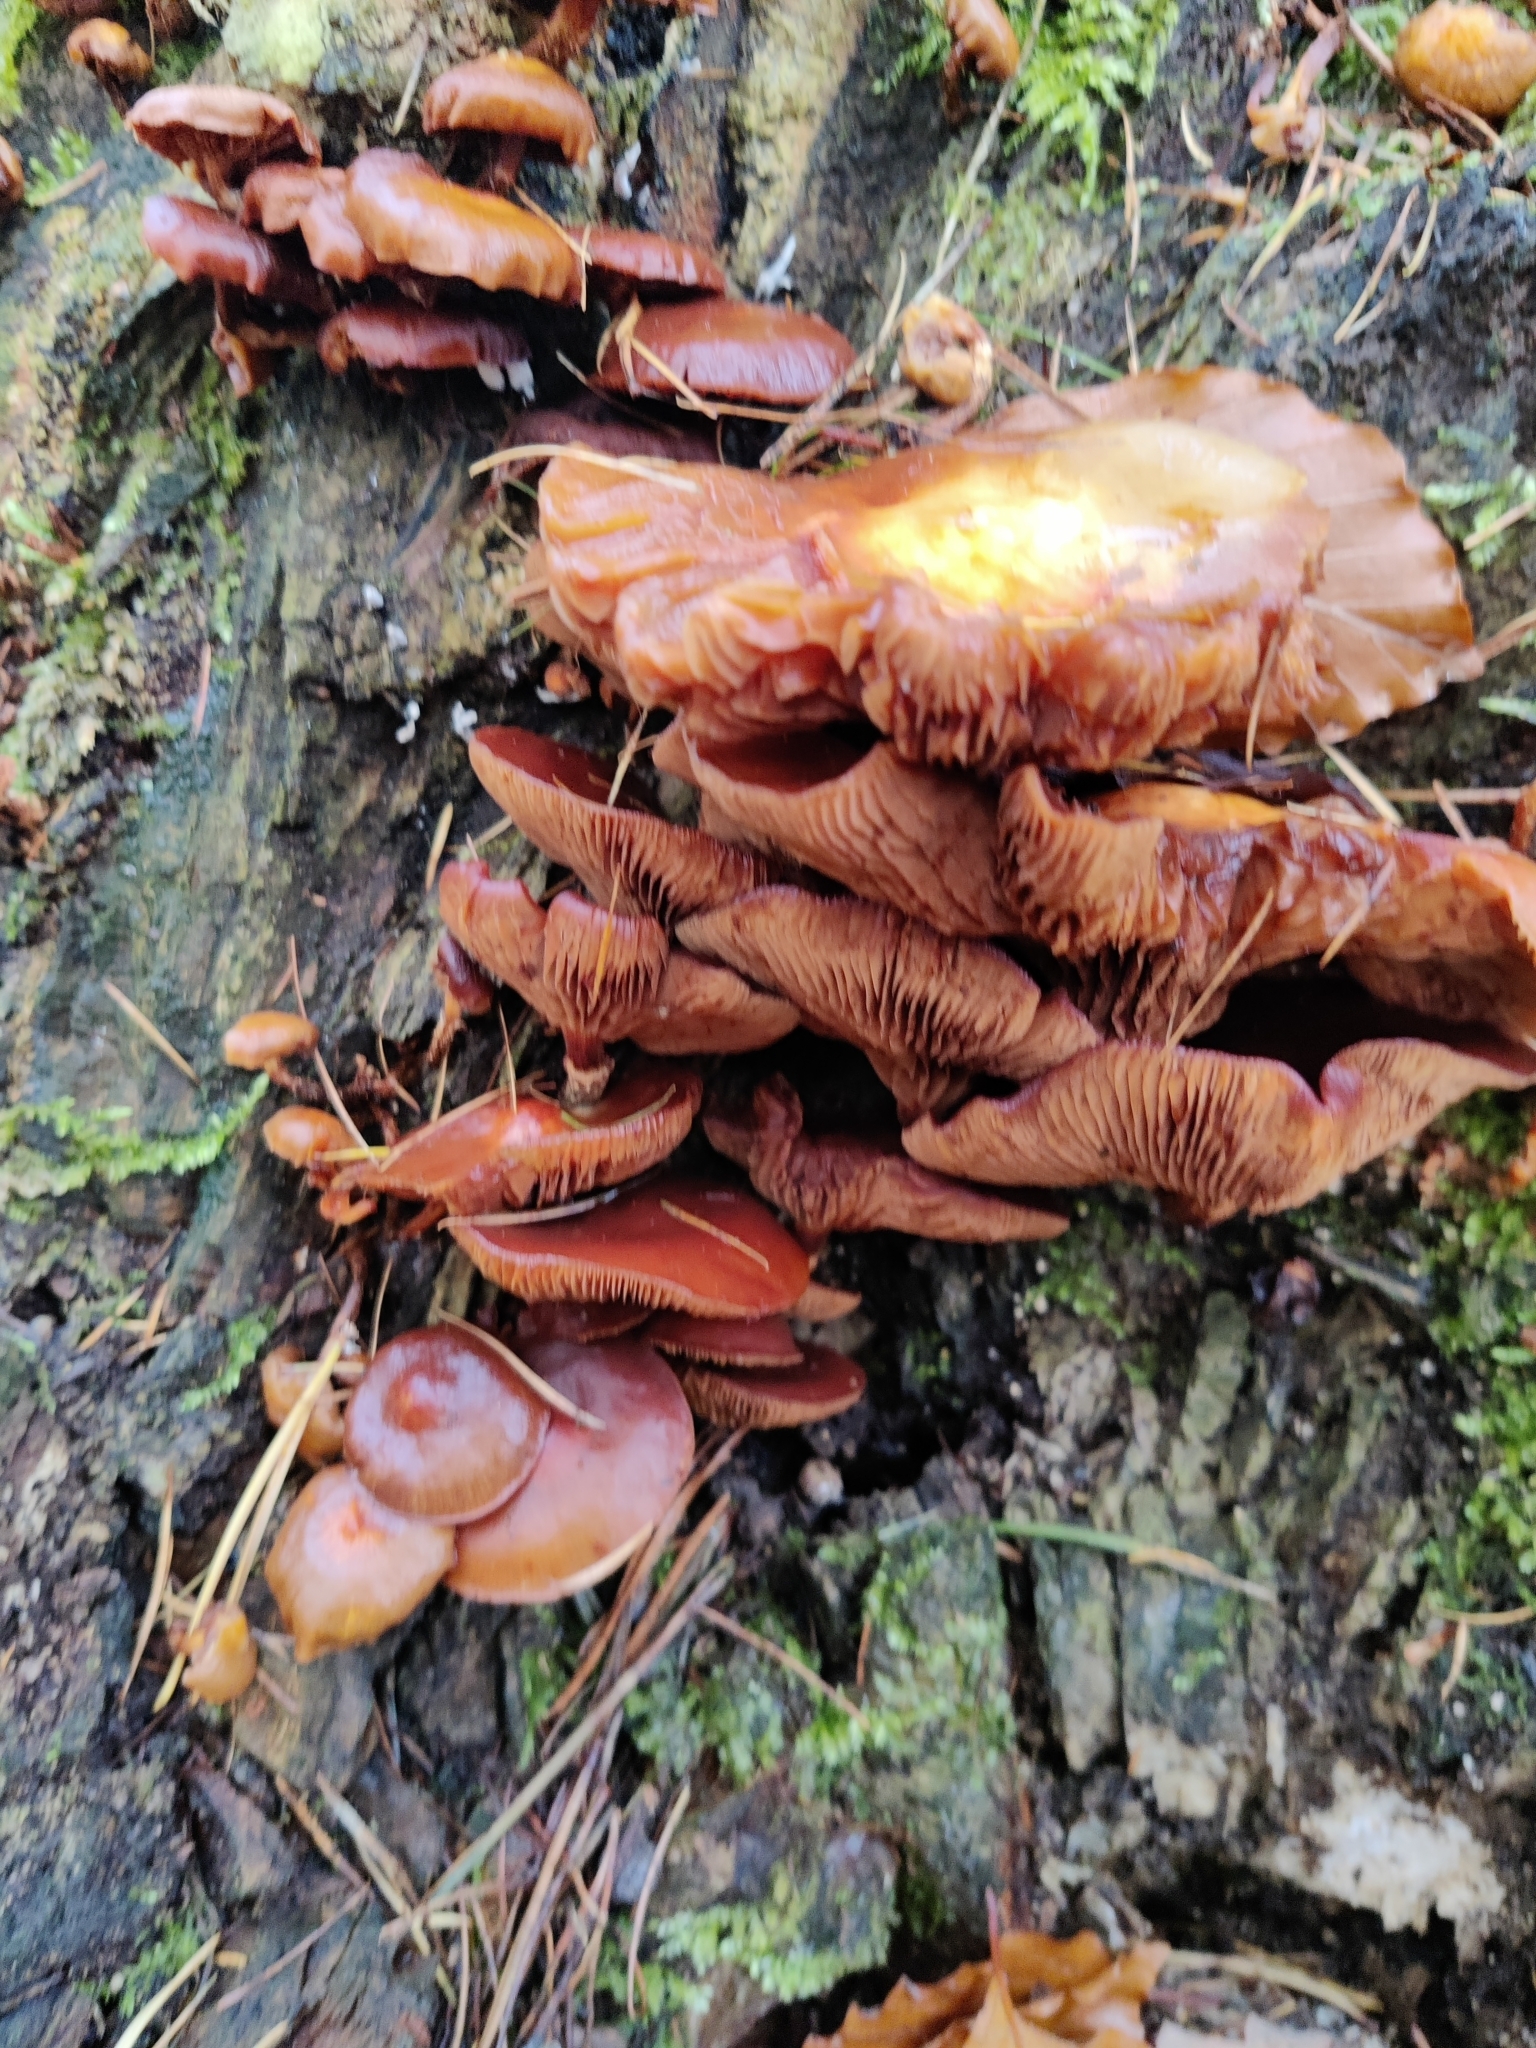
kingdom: Fungi
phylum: Basidiomycota
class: Agaricomycetes
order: Agaricales
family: Strophariaceae
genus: Kuehneromyces
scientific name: Kuehneromyces mutabilis
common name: Sheathed woodtuft
